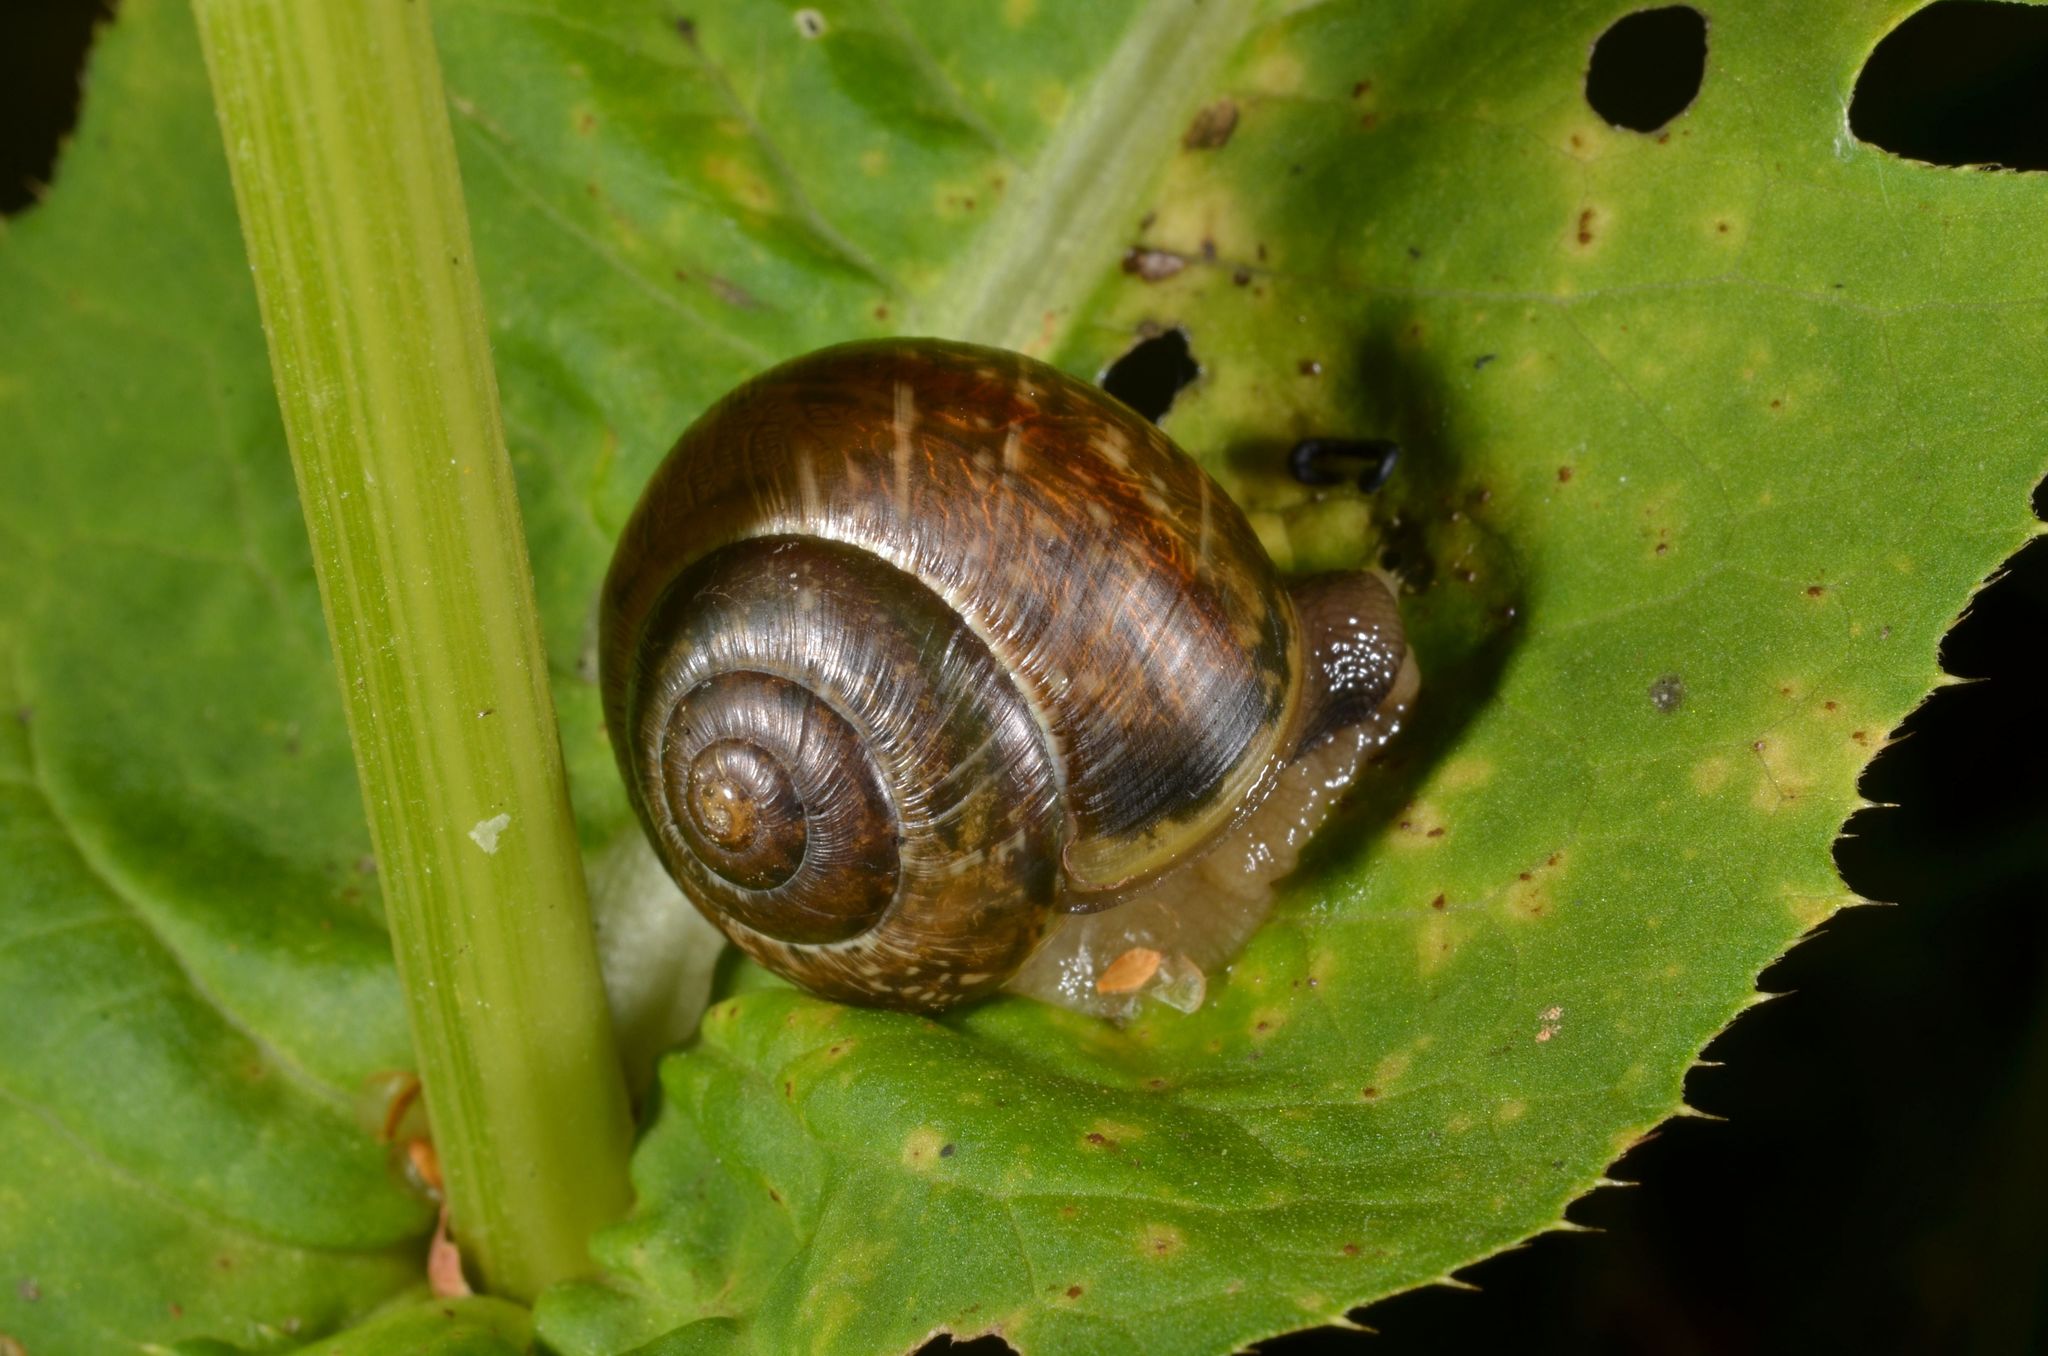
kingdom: Animalia
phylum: Mollusca
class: Gastropoda
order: Stylommatophora
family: Helicidae
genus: Arianta
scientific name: Arianta arbustorum
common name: Copse snail
